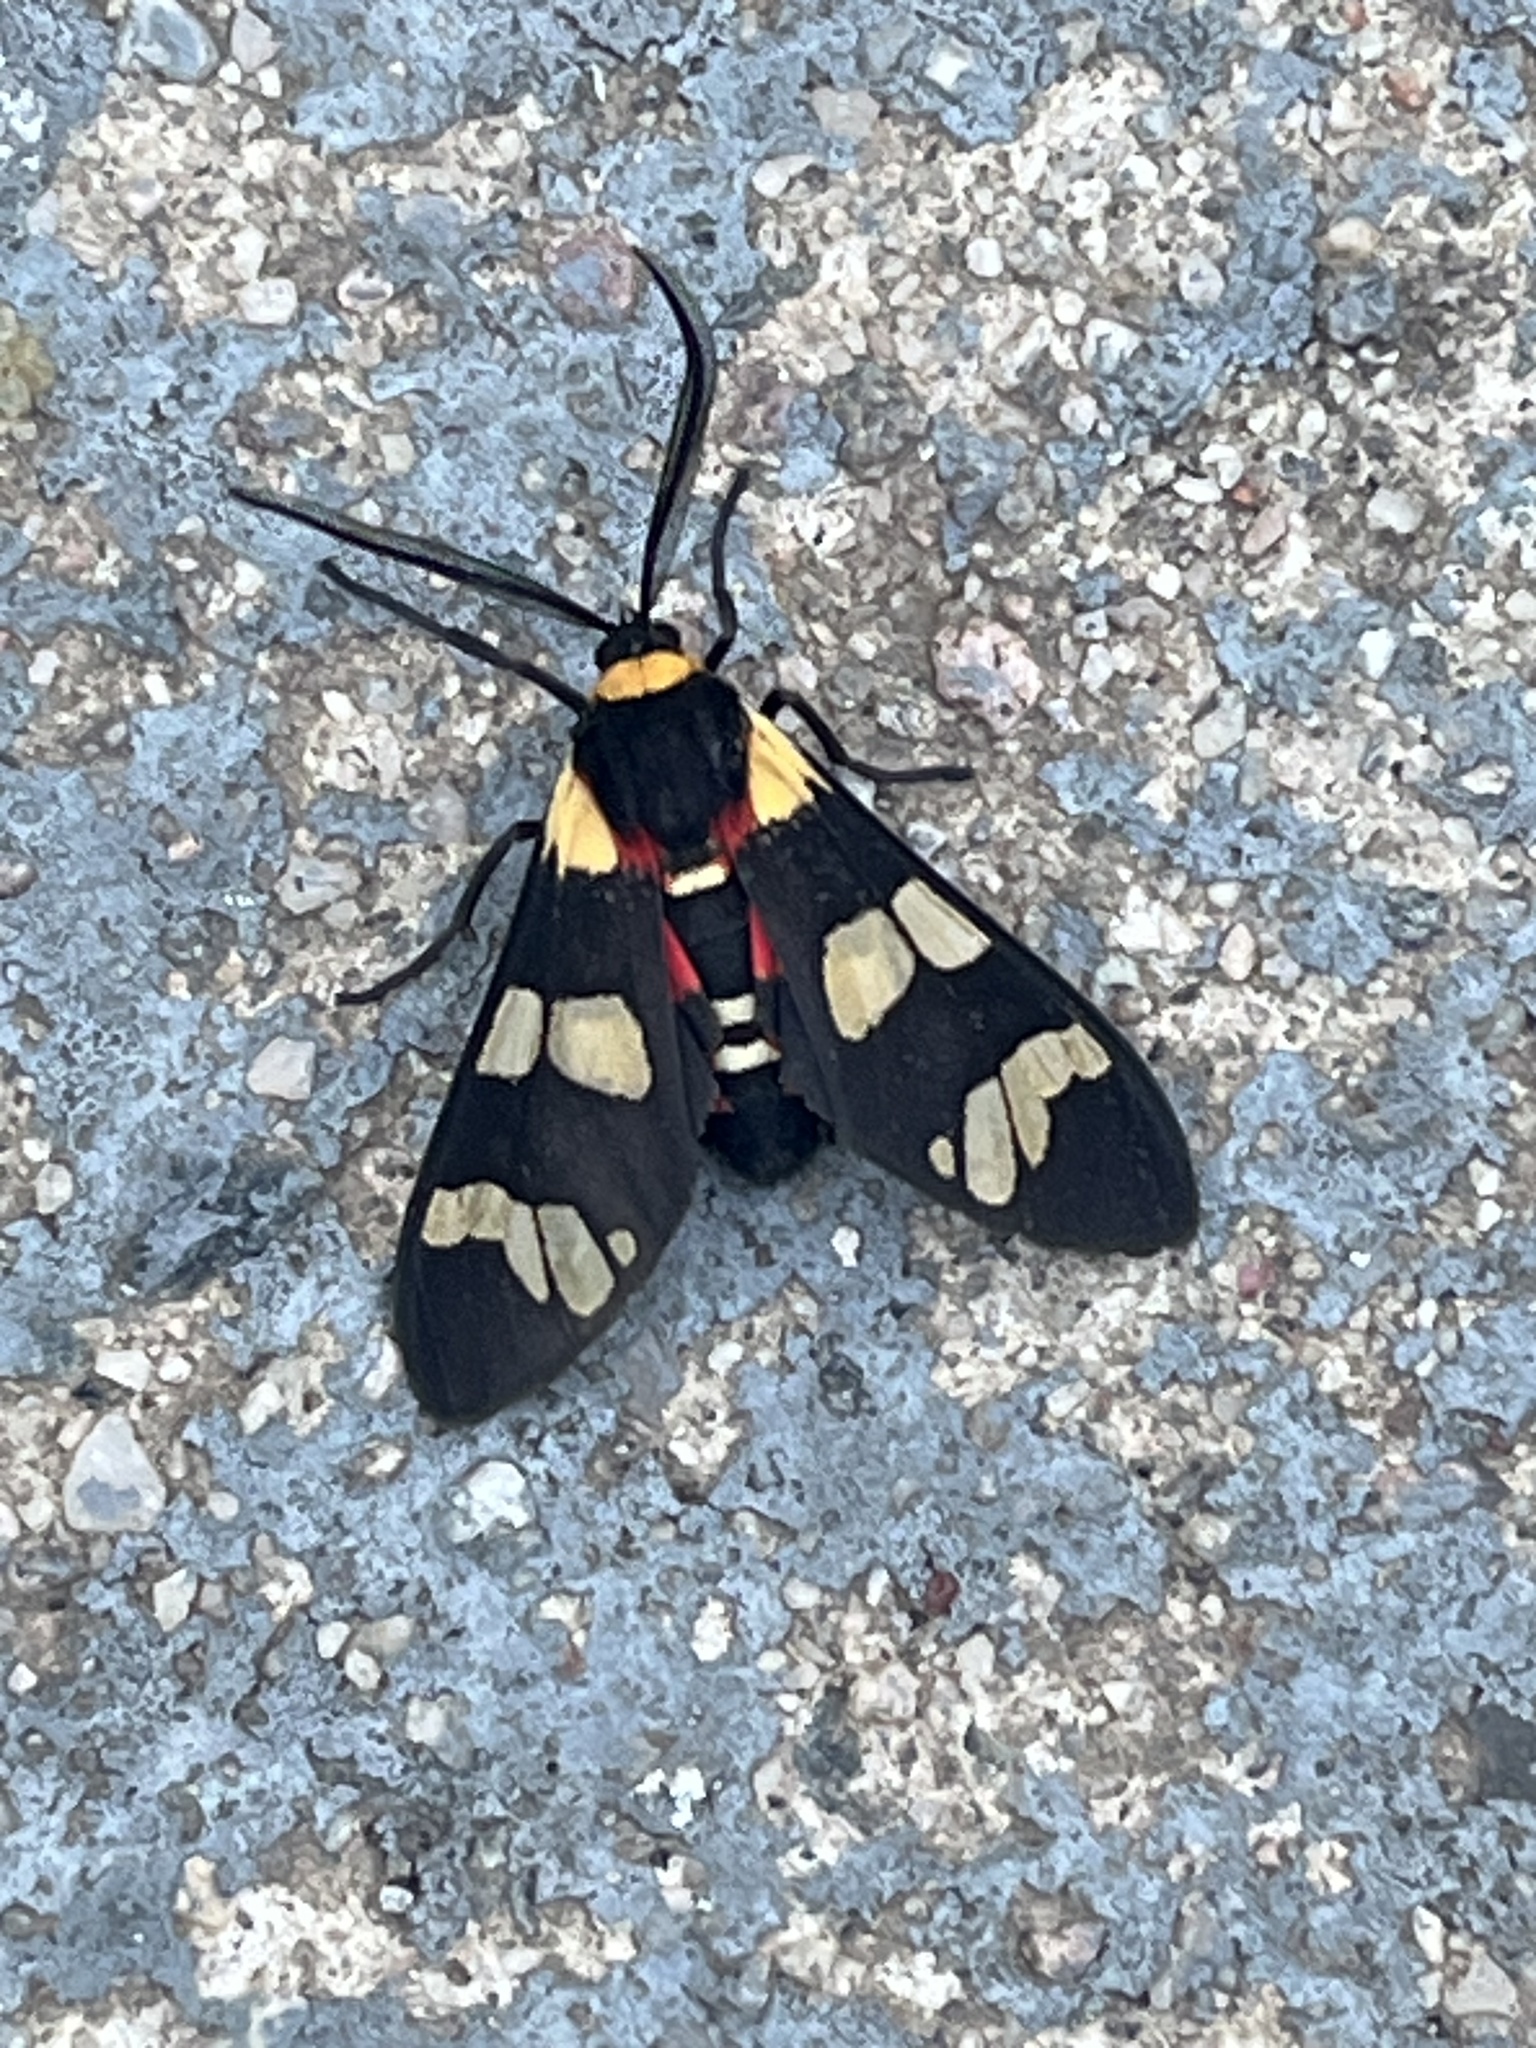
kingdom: Animalia
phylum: Arthropoda
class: Insecta
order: Lepidoptera
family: Erebidae
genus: Eurata
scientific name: Eurata patagiata
